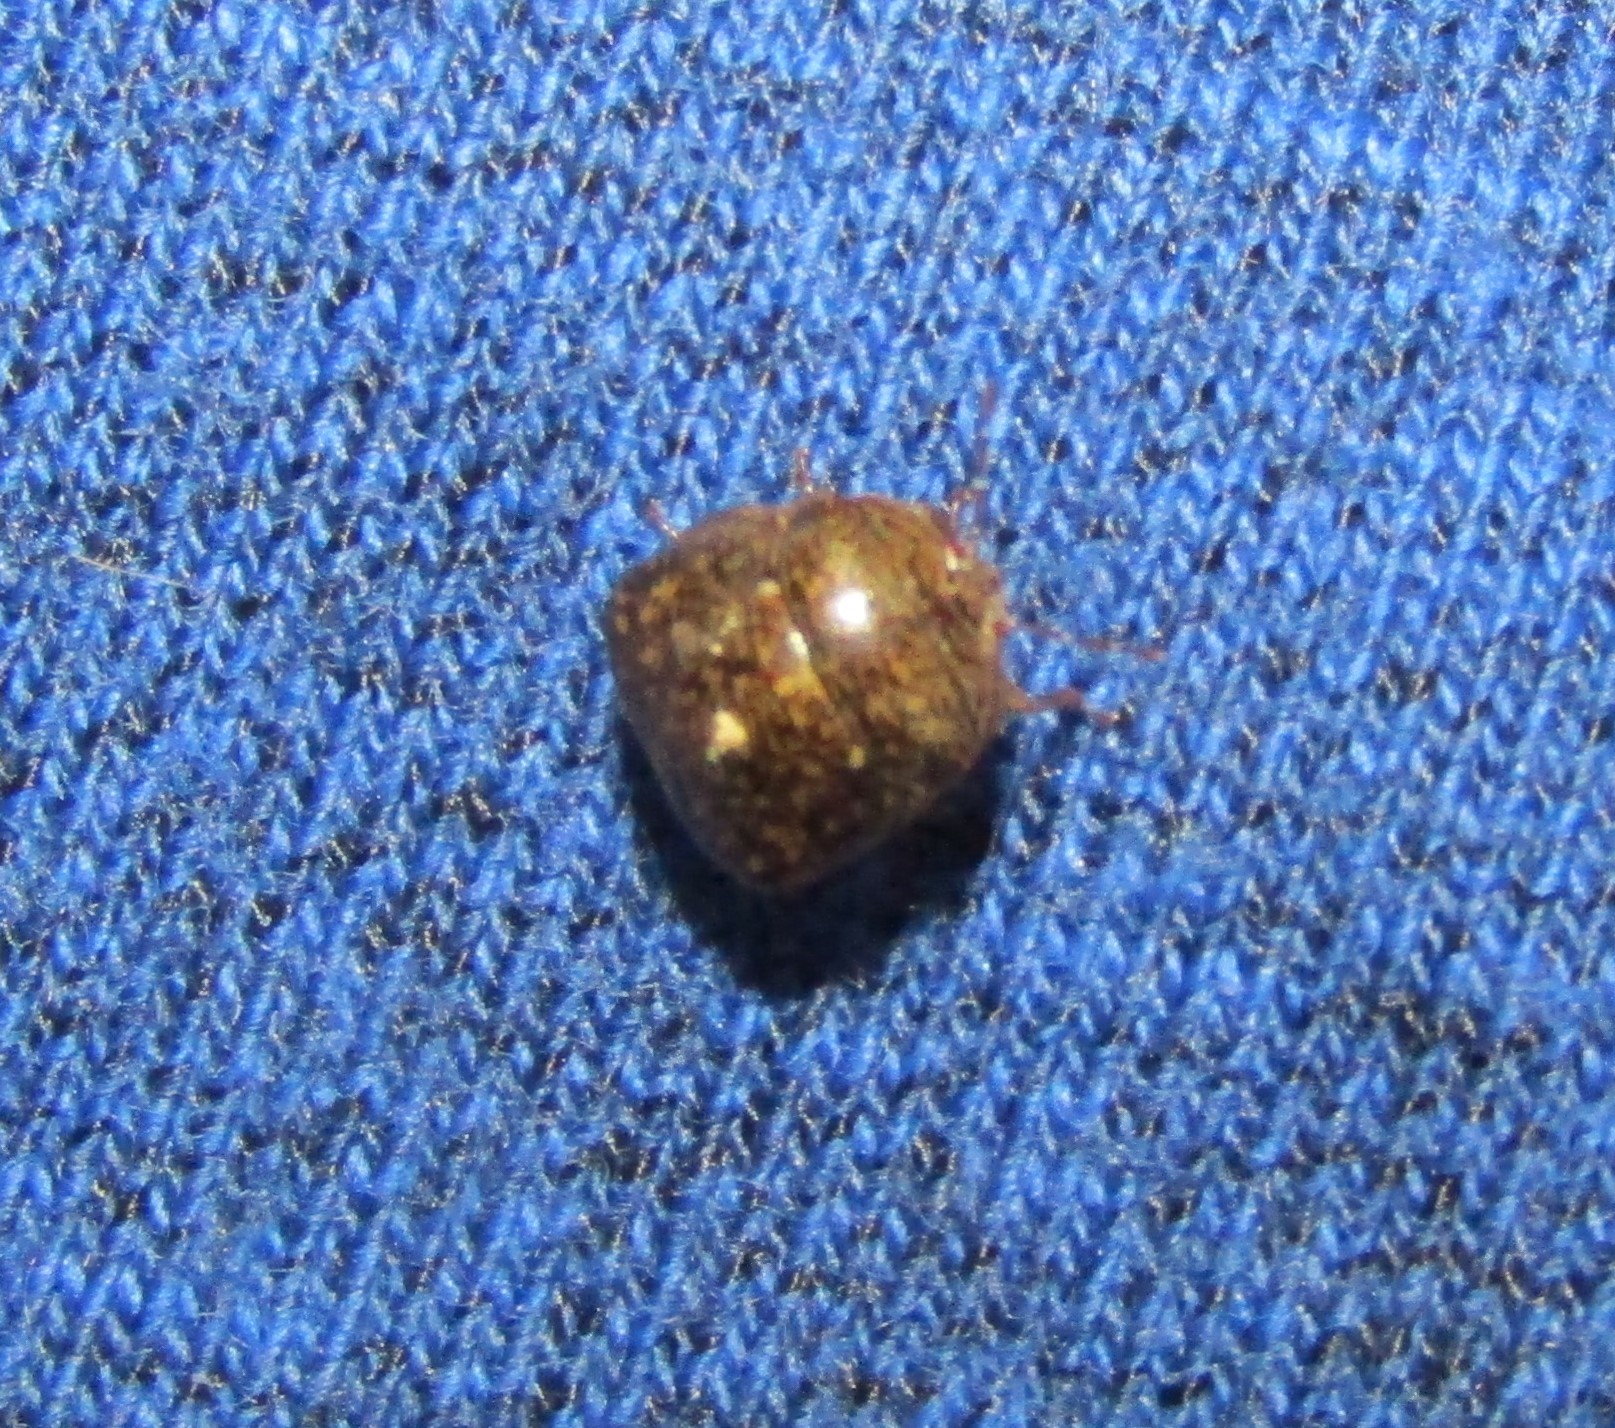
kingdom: Animalia
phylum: Arthropoda
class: Insecta
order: Hemiptera
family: Plataspidae
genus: Megacopta
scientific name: Megacopta cribraria
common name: Bean plataspid
